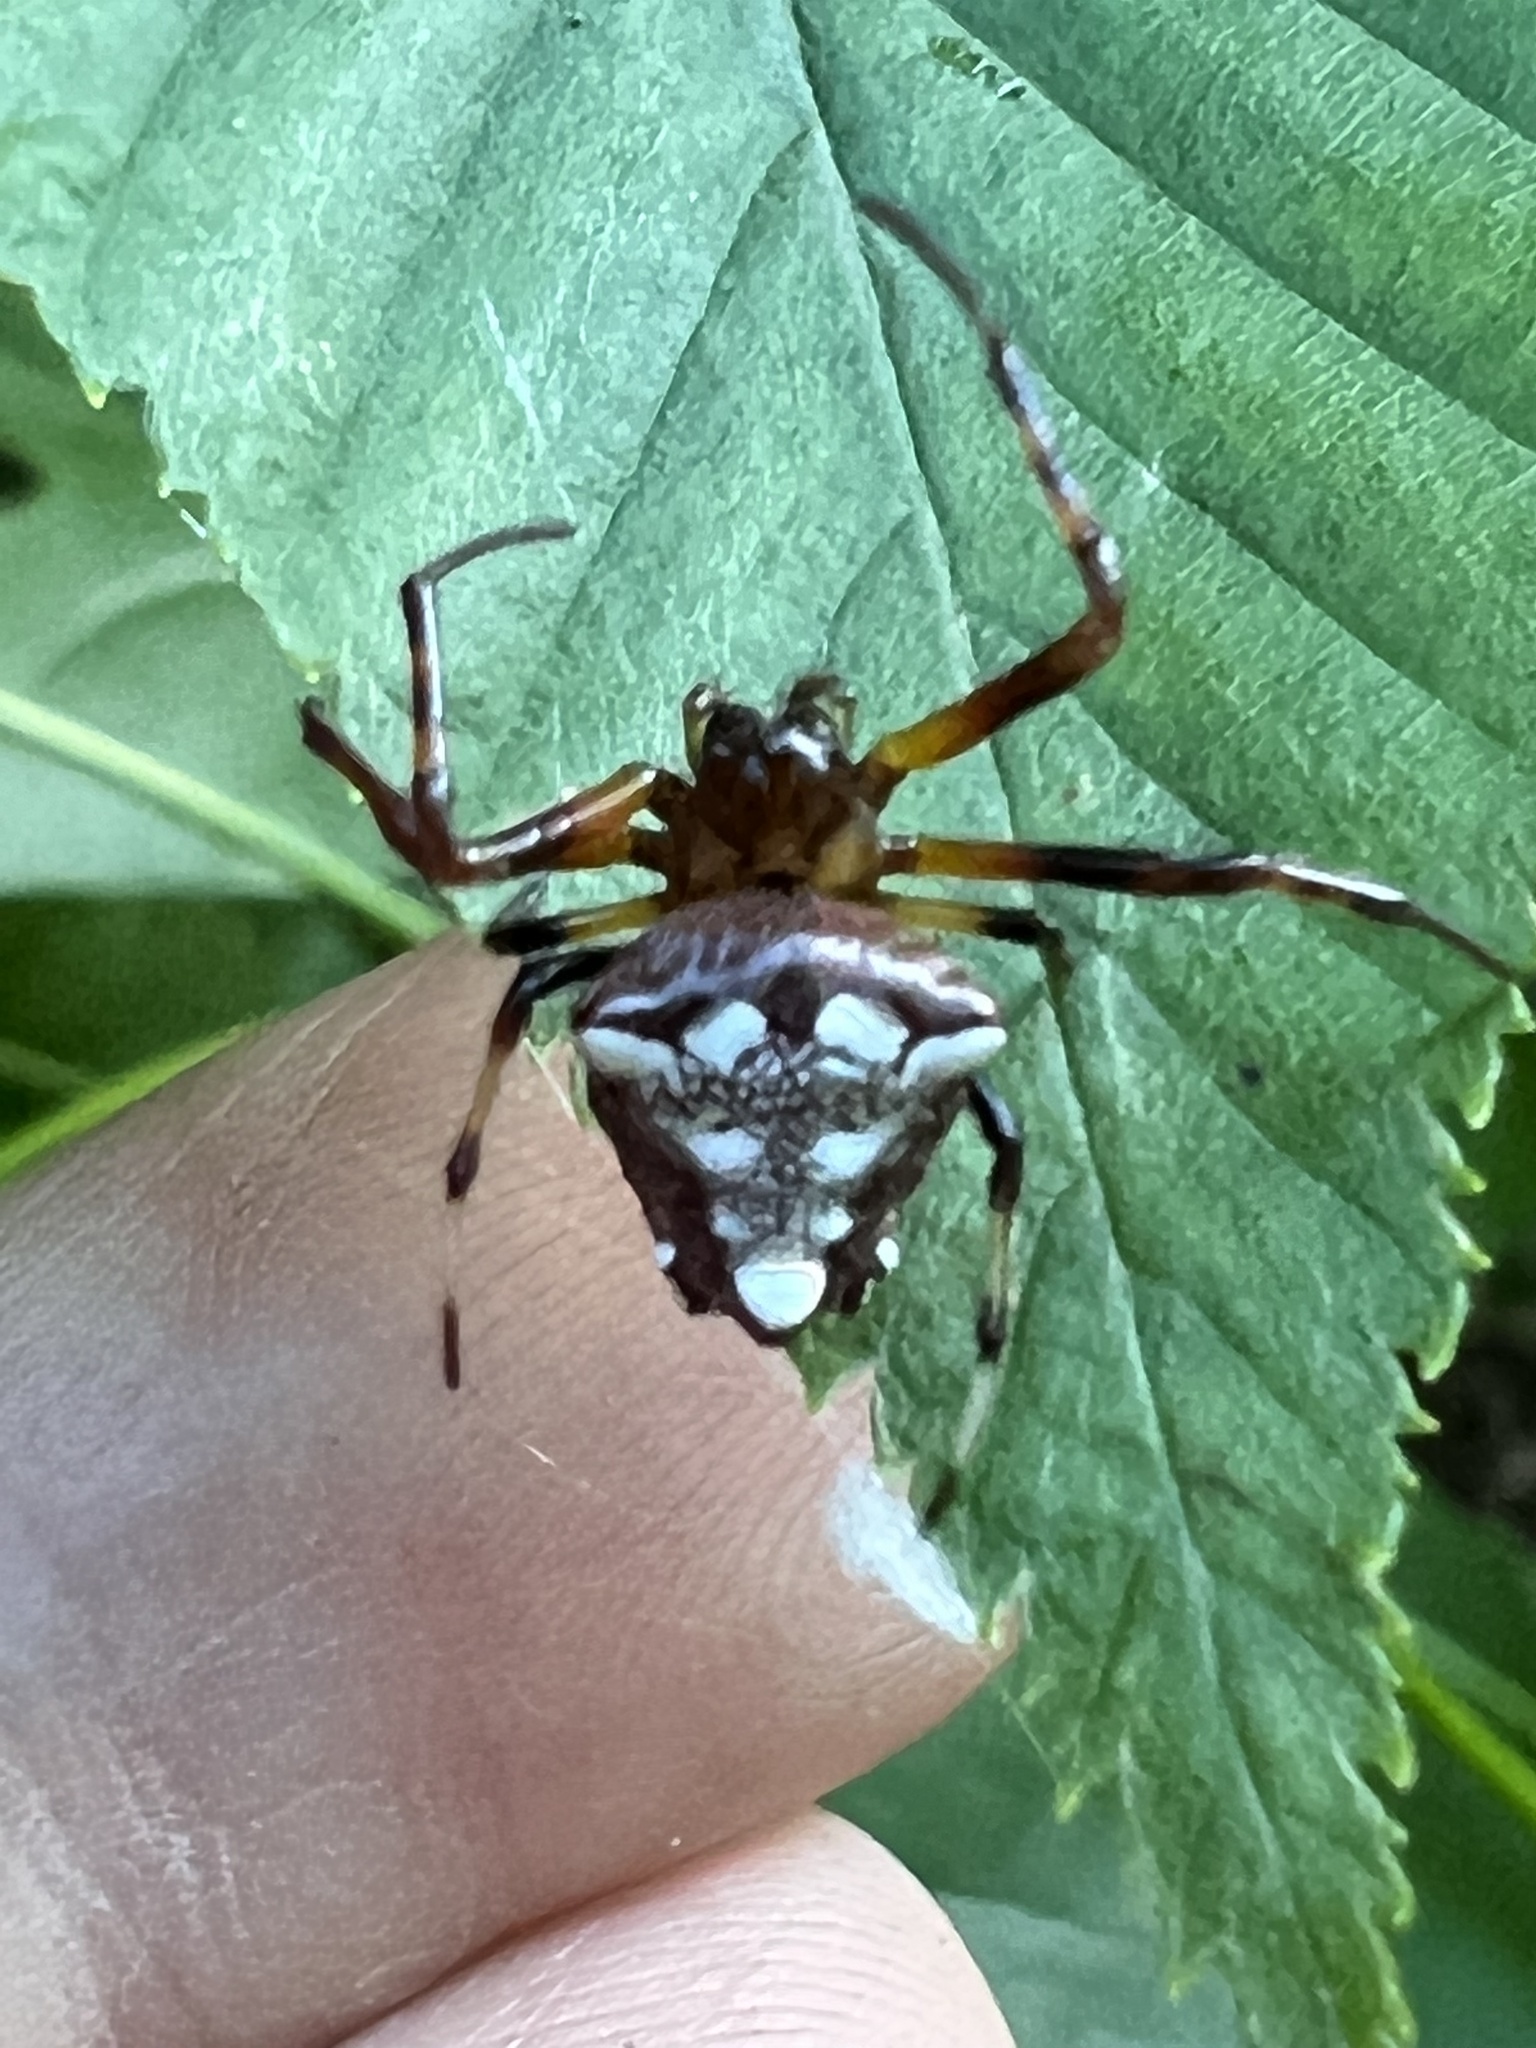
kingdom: Animalia
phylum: Arthropoda
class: Arachnida
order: Araneae
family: Araneidae
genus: Verrucosa
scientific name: Verrucosa arenata
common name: Orb weavers
